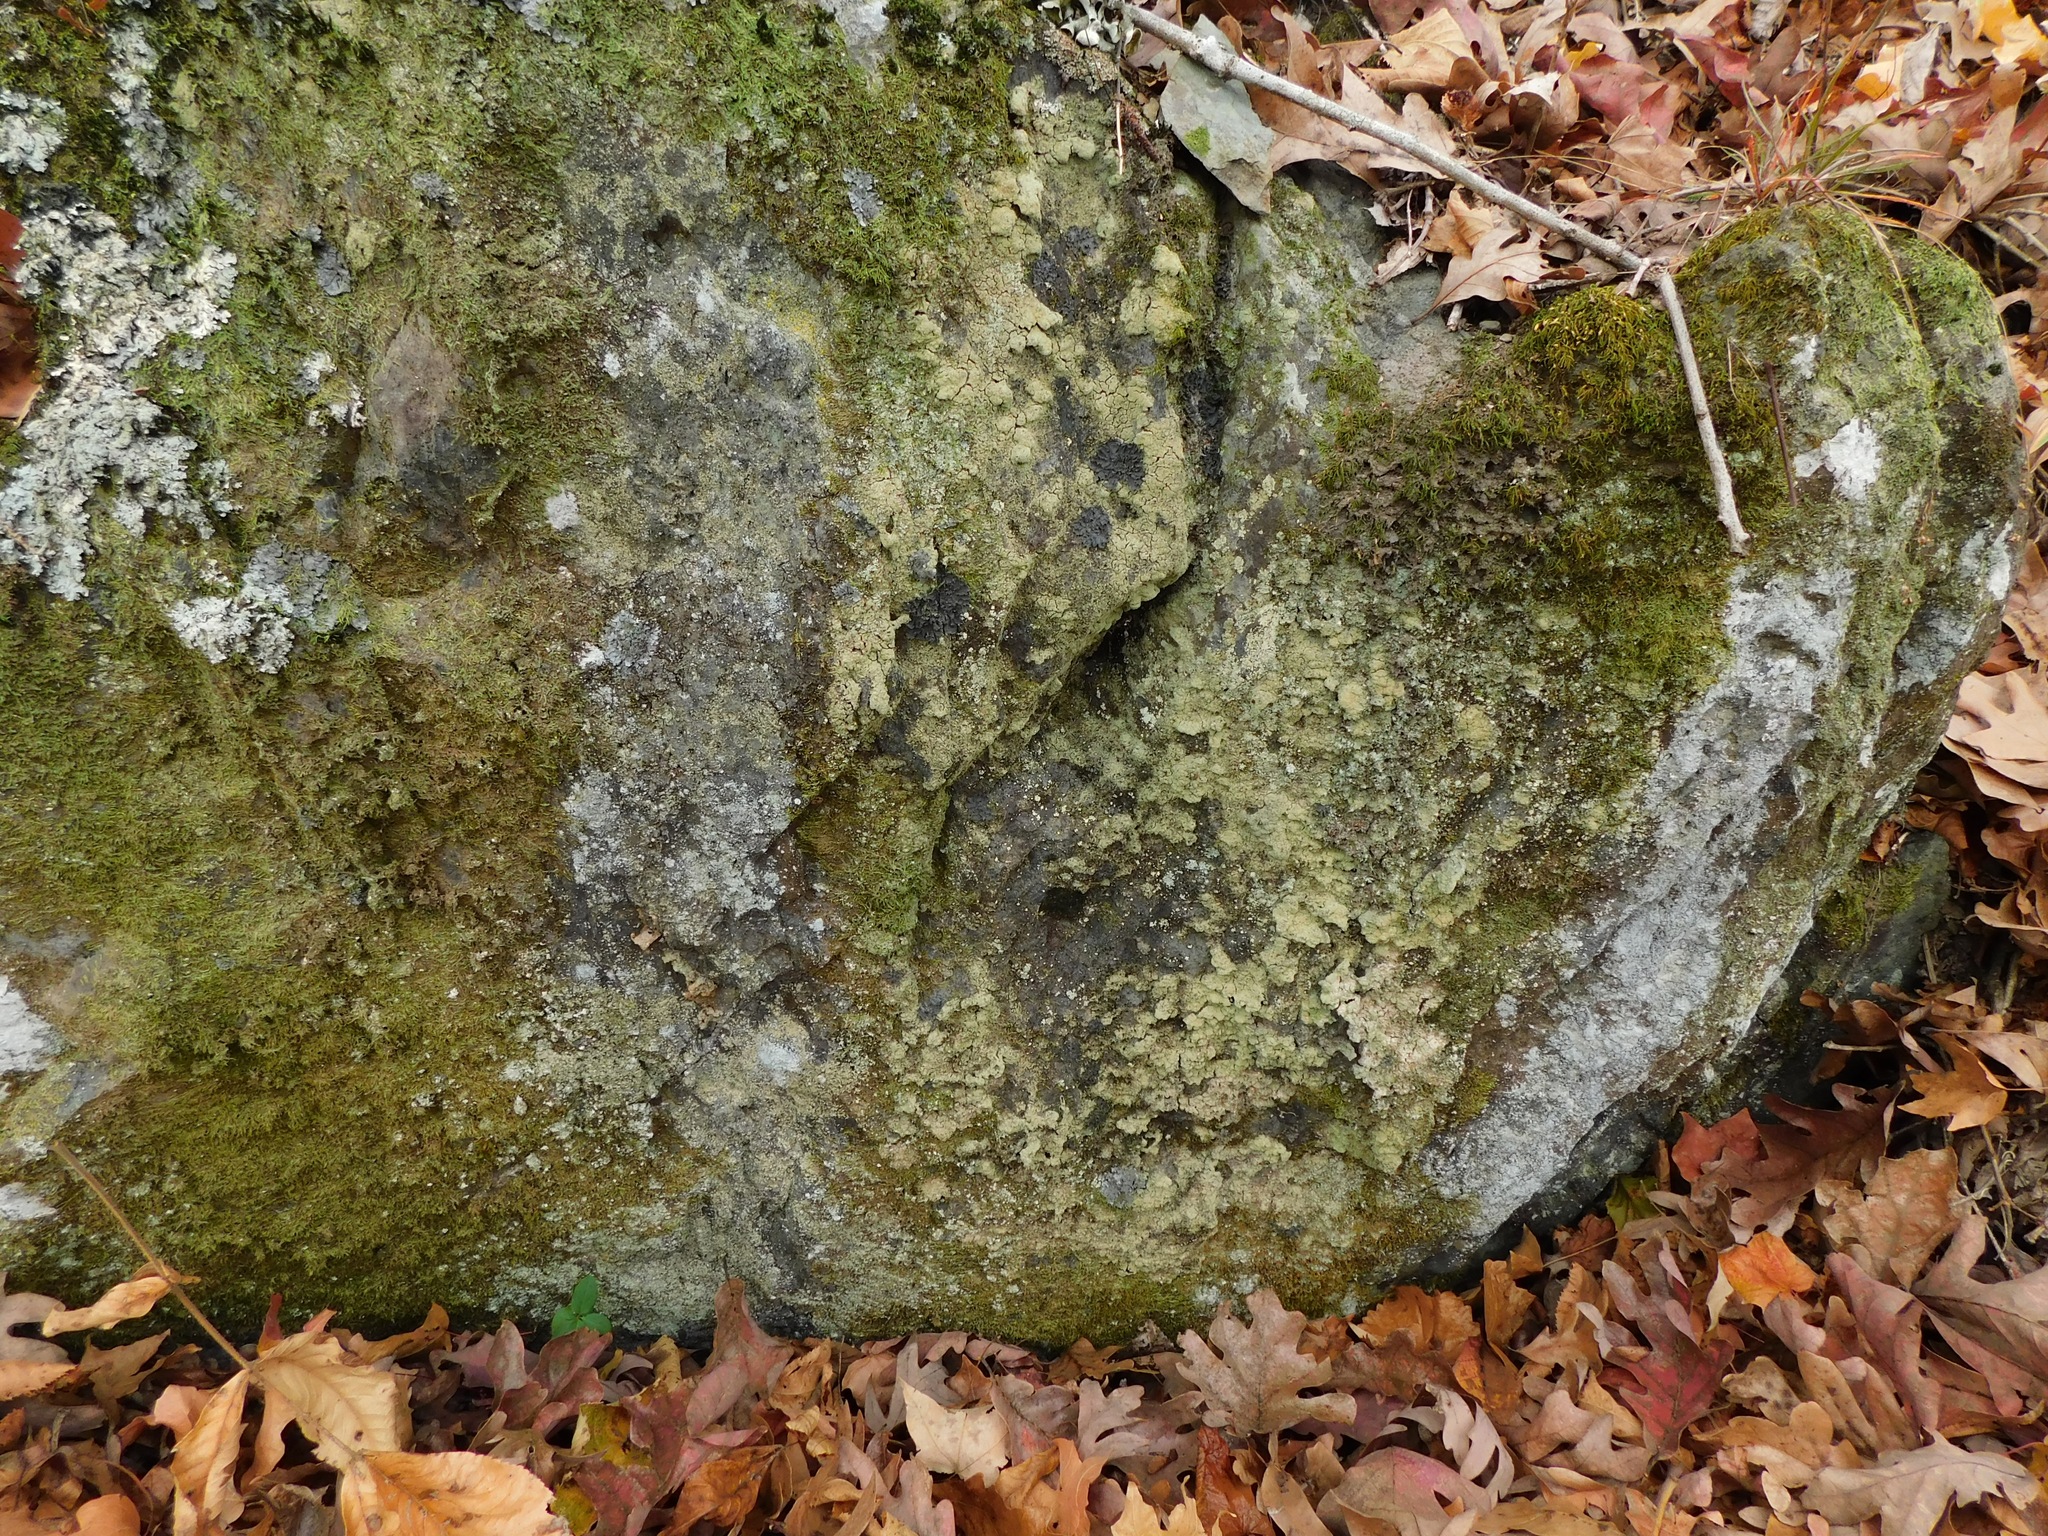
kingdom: Fungi
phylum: Ascomycota
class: Lecanoromycetes
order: Lecanorales
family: Cladoniaceae
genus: Cladonia
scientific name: Cladonia petrophila
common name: Rock-loving cladonia
